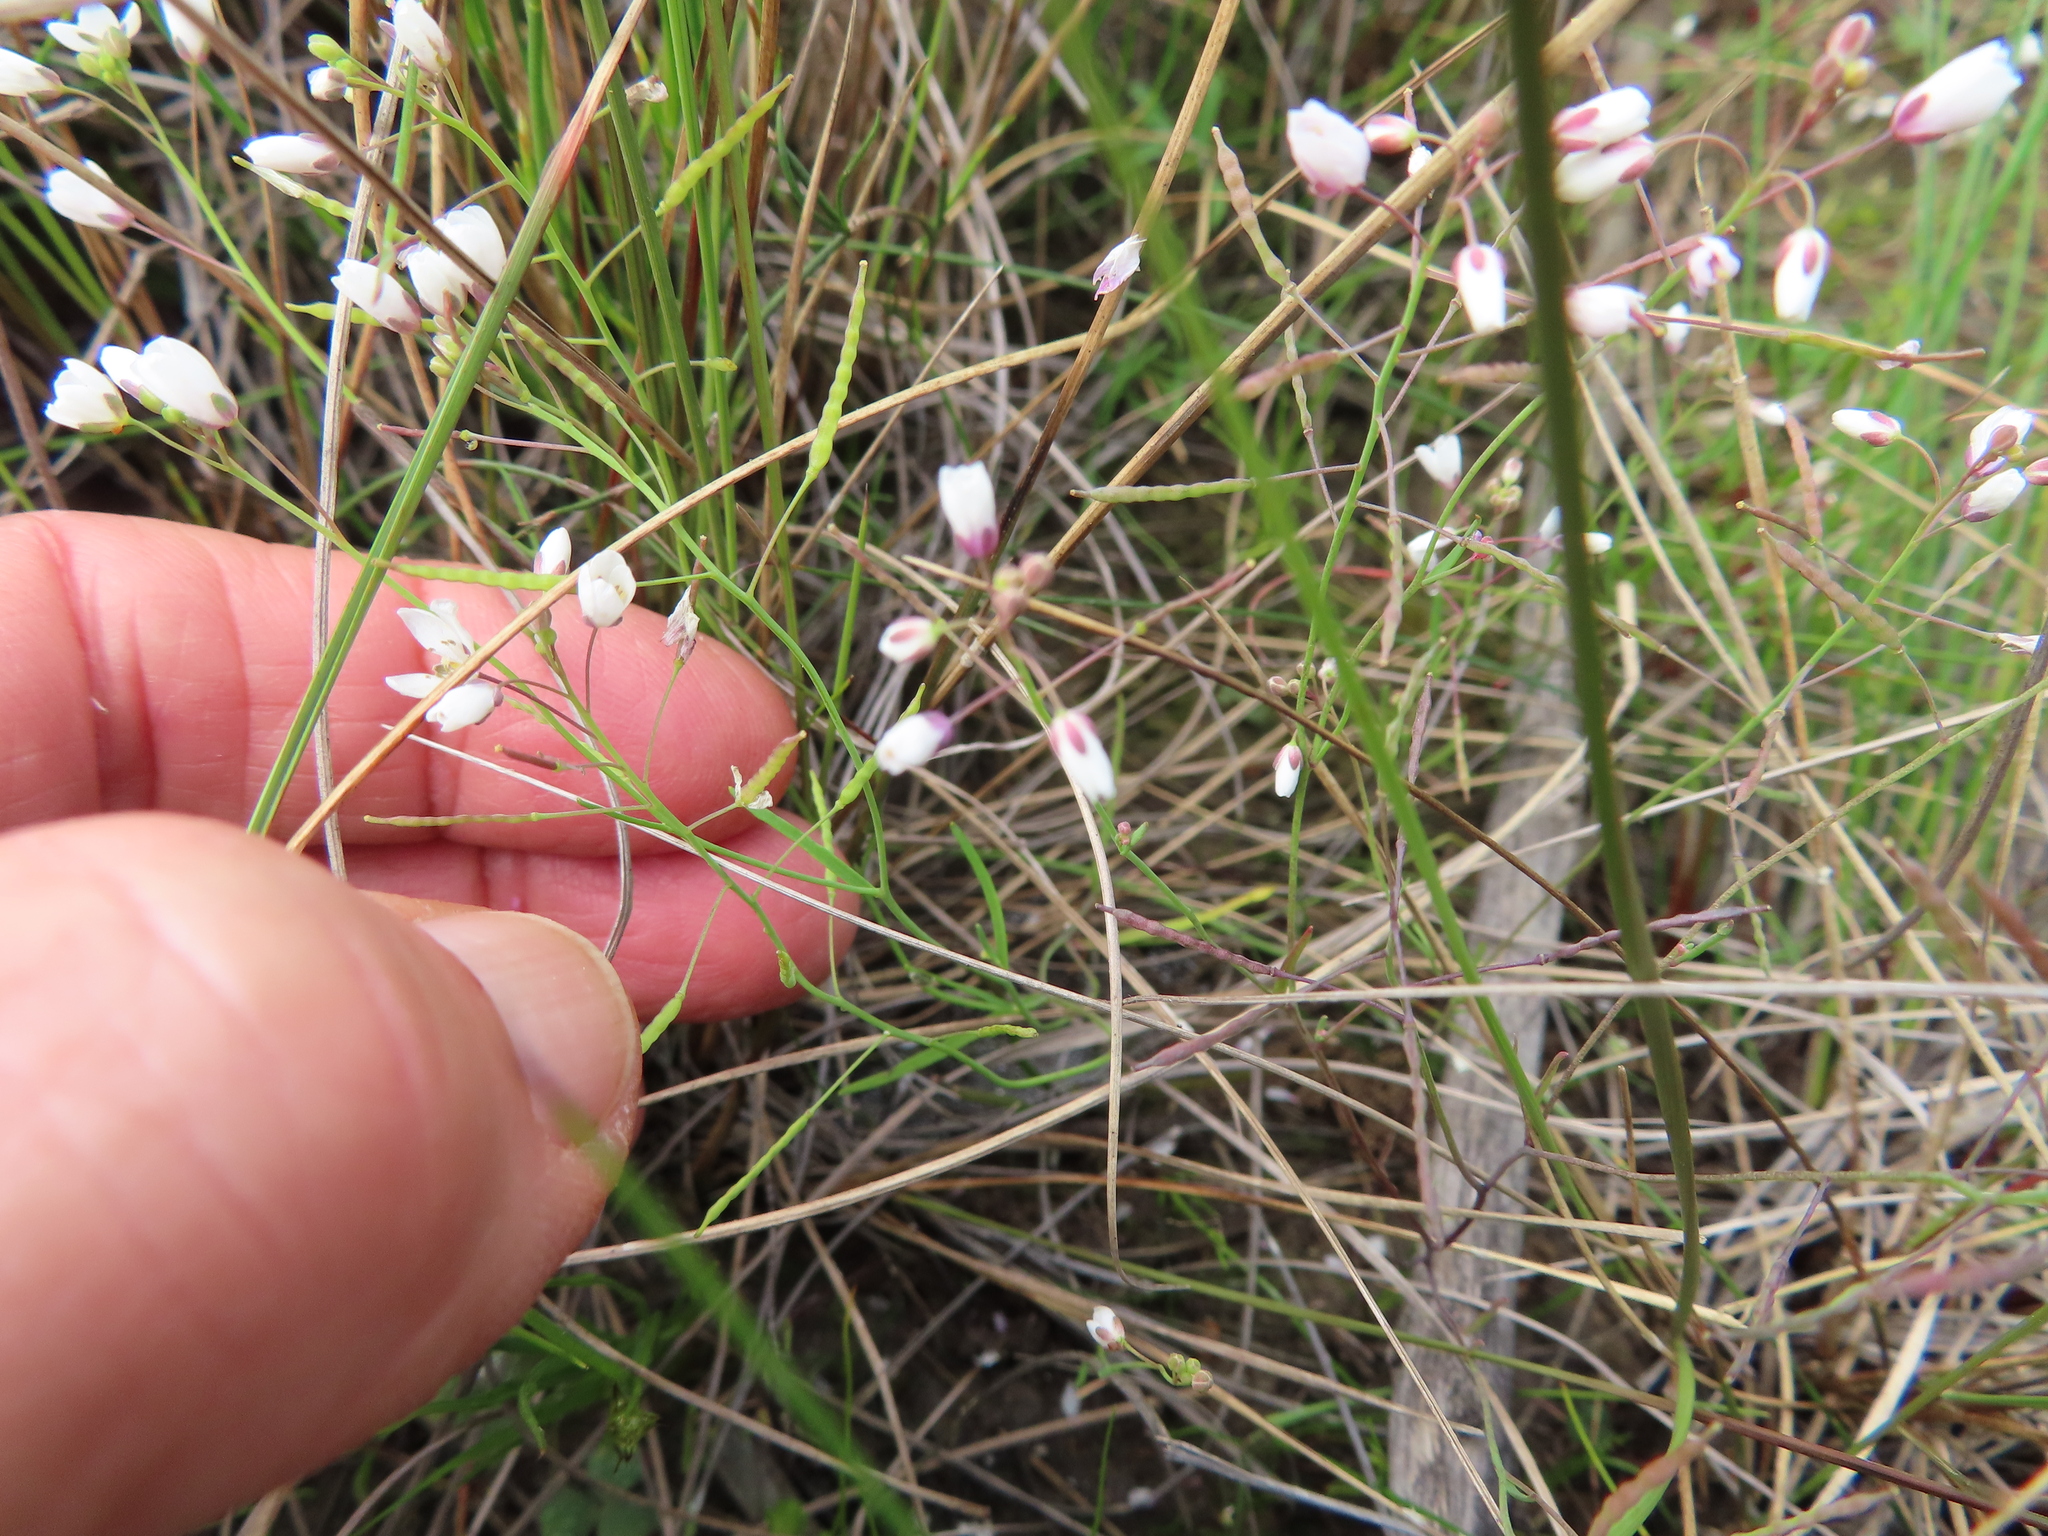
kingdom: Plantae
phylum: Tracheophyta
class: Magnoliopsida
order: Brassicales
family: Brassicaceae
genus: Heliophila
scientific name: Heliophila pusilla
